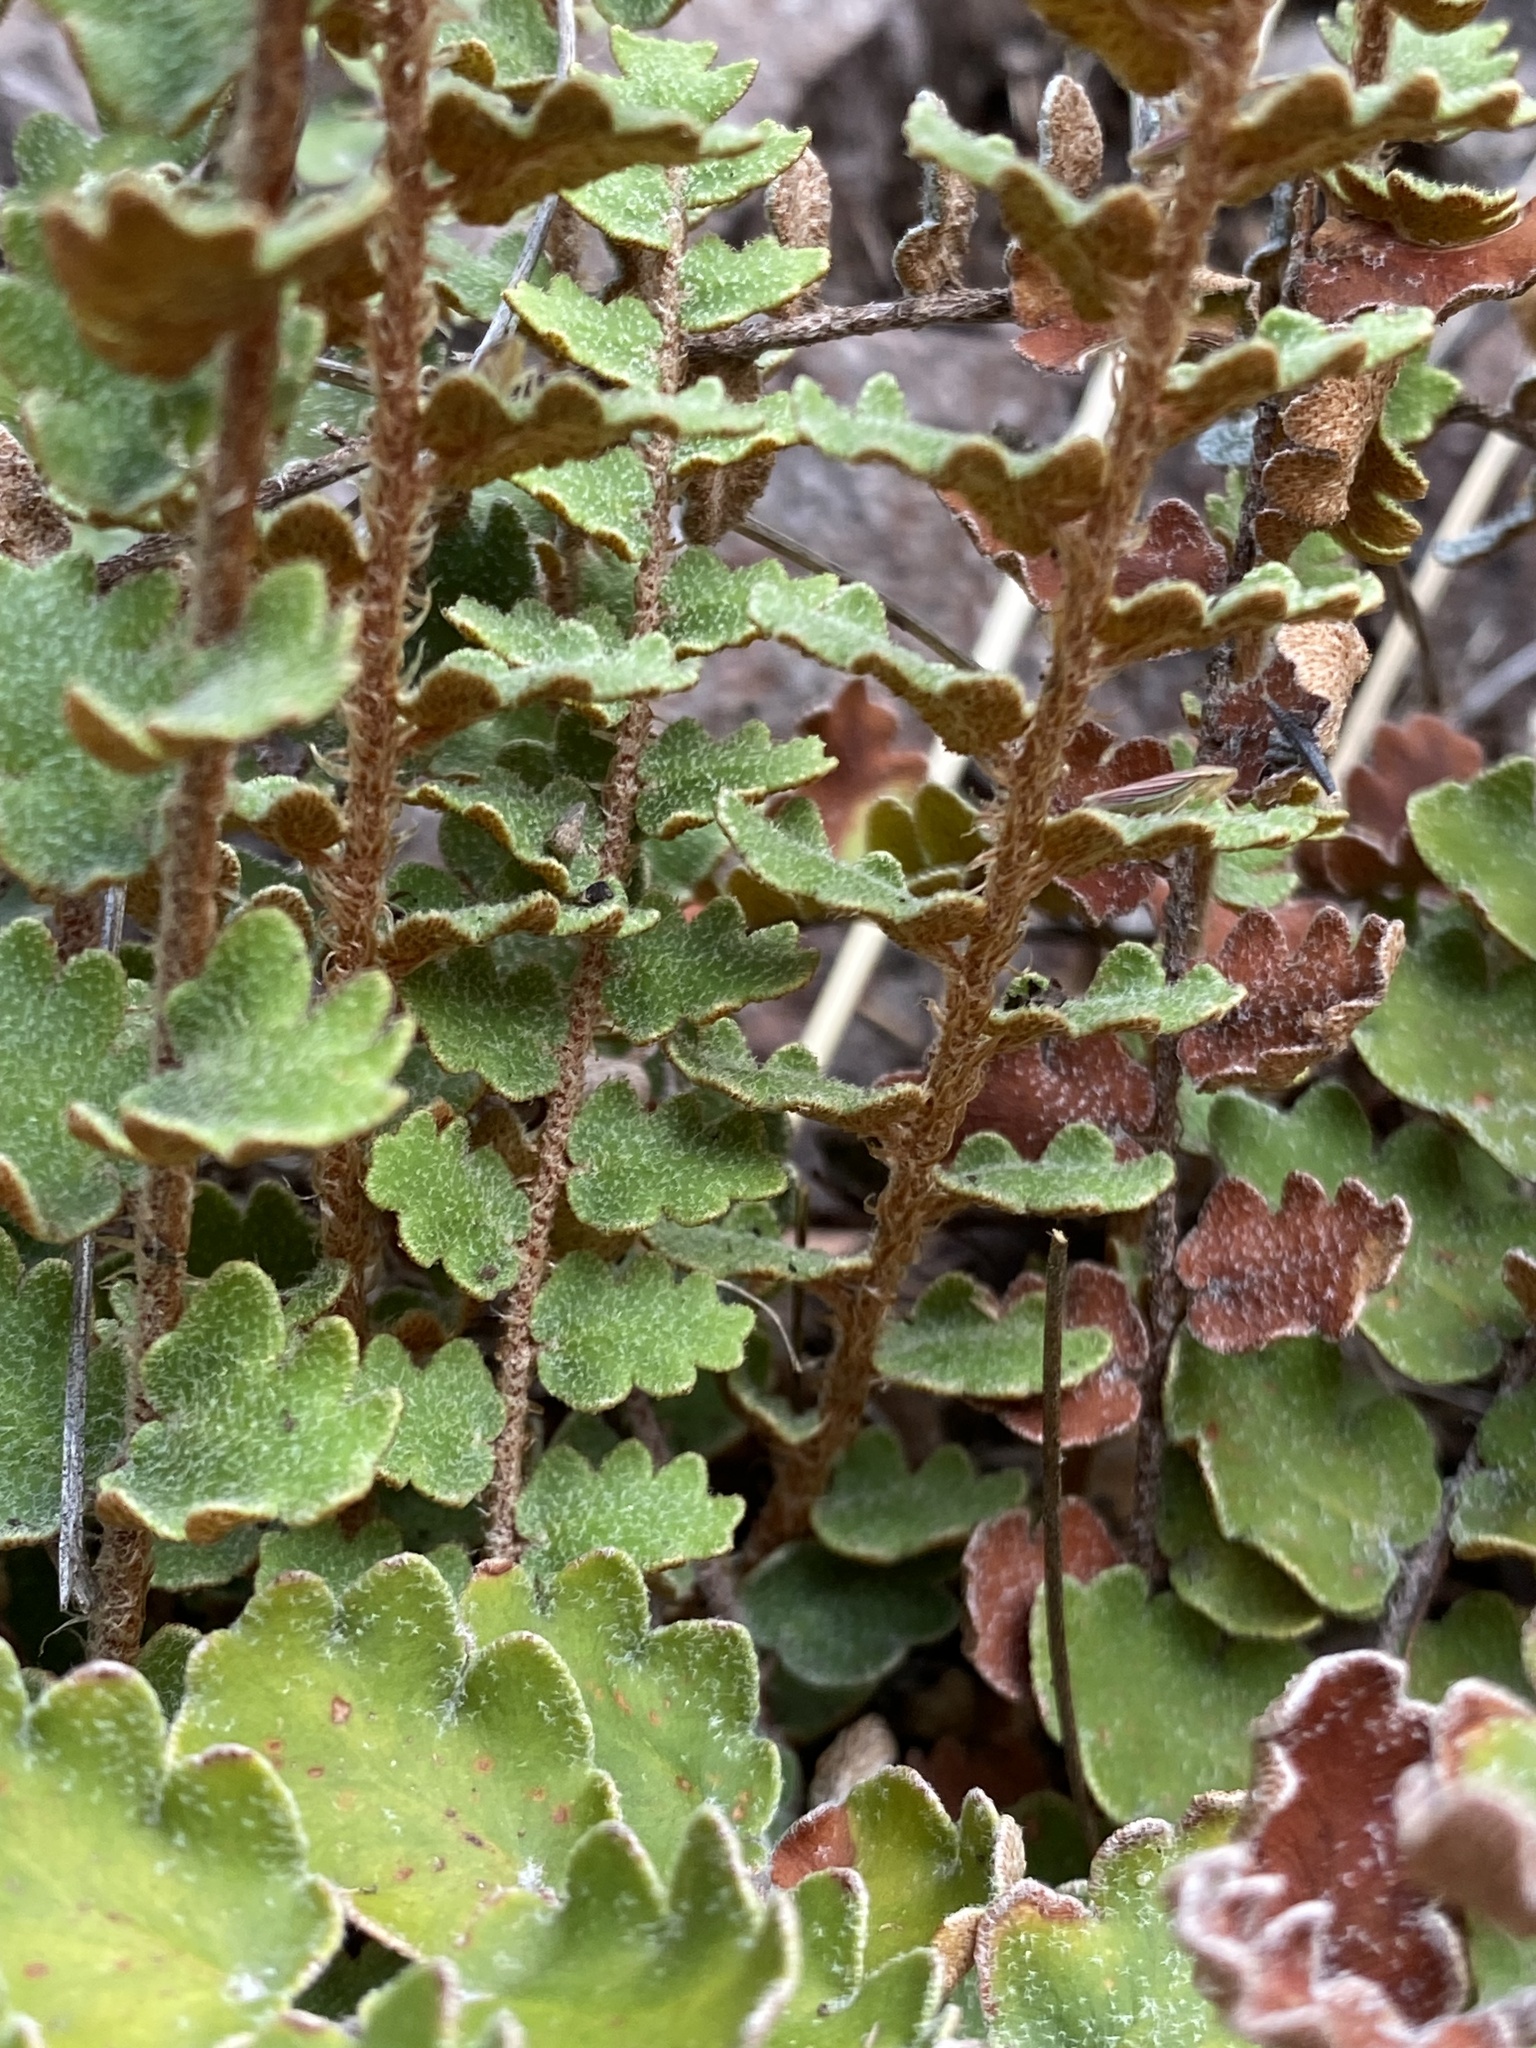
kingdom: Plantae
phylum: Tracheophyta
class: Polypodiopsida
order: Polypodiales
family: Pteridaceae
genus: Astrolepis
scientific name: Astrolepis sinuata
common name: Wavy scaly cloakfern
